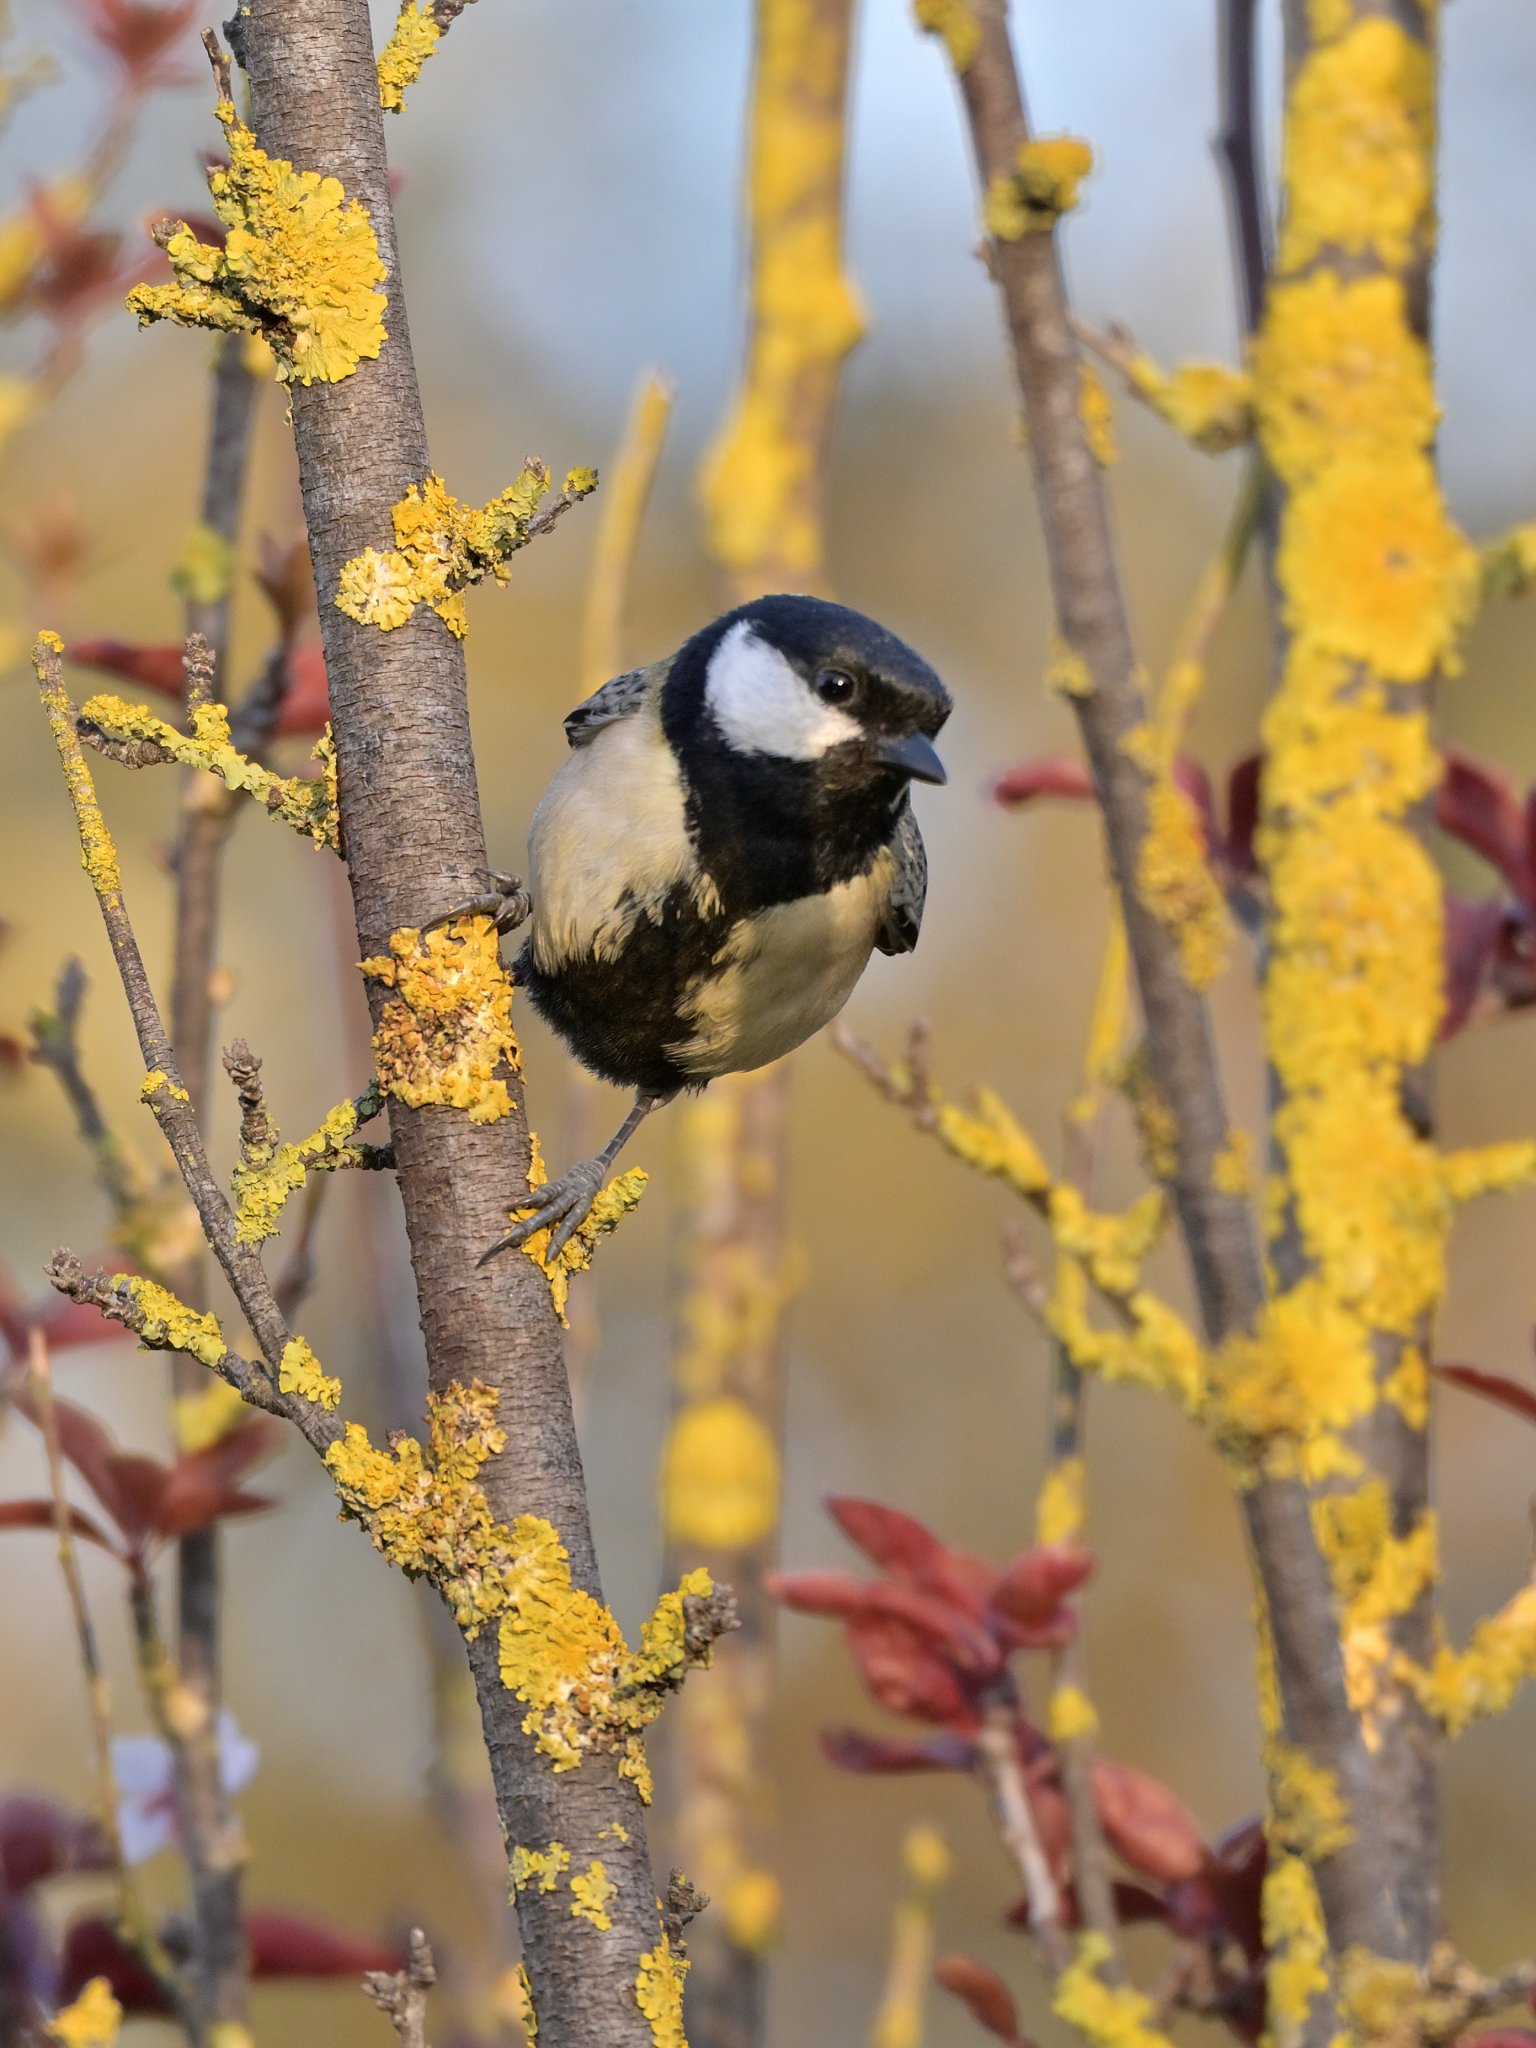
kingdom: Animalia
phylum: Chordata
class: Aves
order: Passeriformes
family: Paridae
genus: Parus
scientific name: Parus major
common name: Great tit
